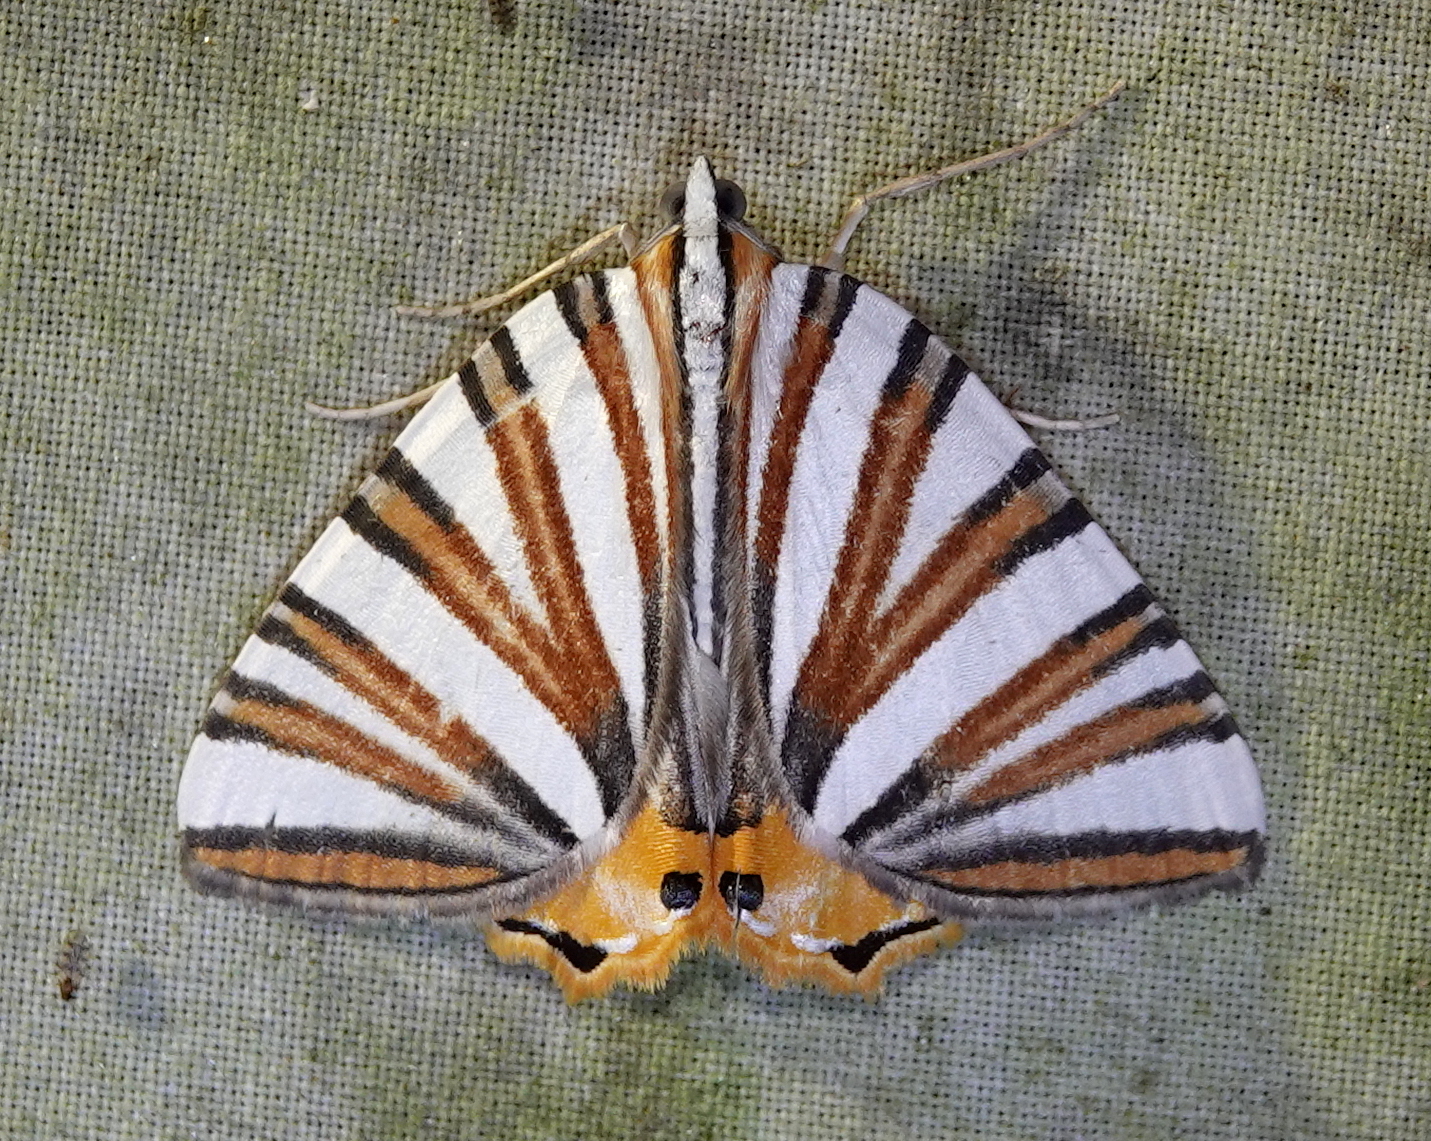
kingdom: Animalia
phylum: Arthropoda
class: Insecta
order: Lepidoptera
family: Geometridae
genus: Pityeja
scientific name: Pityeja histrionaria
